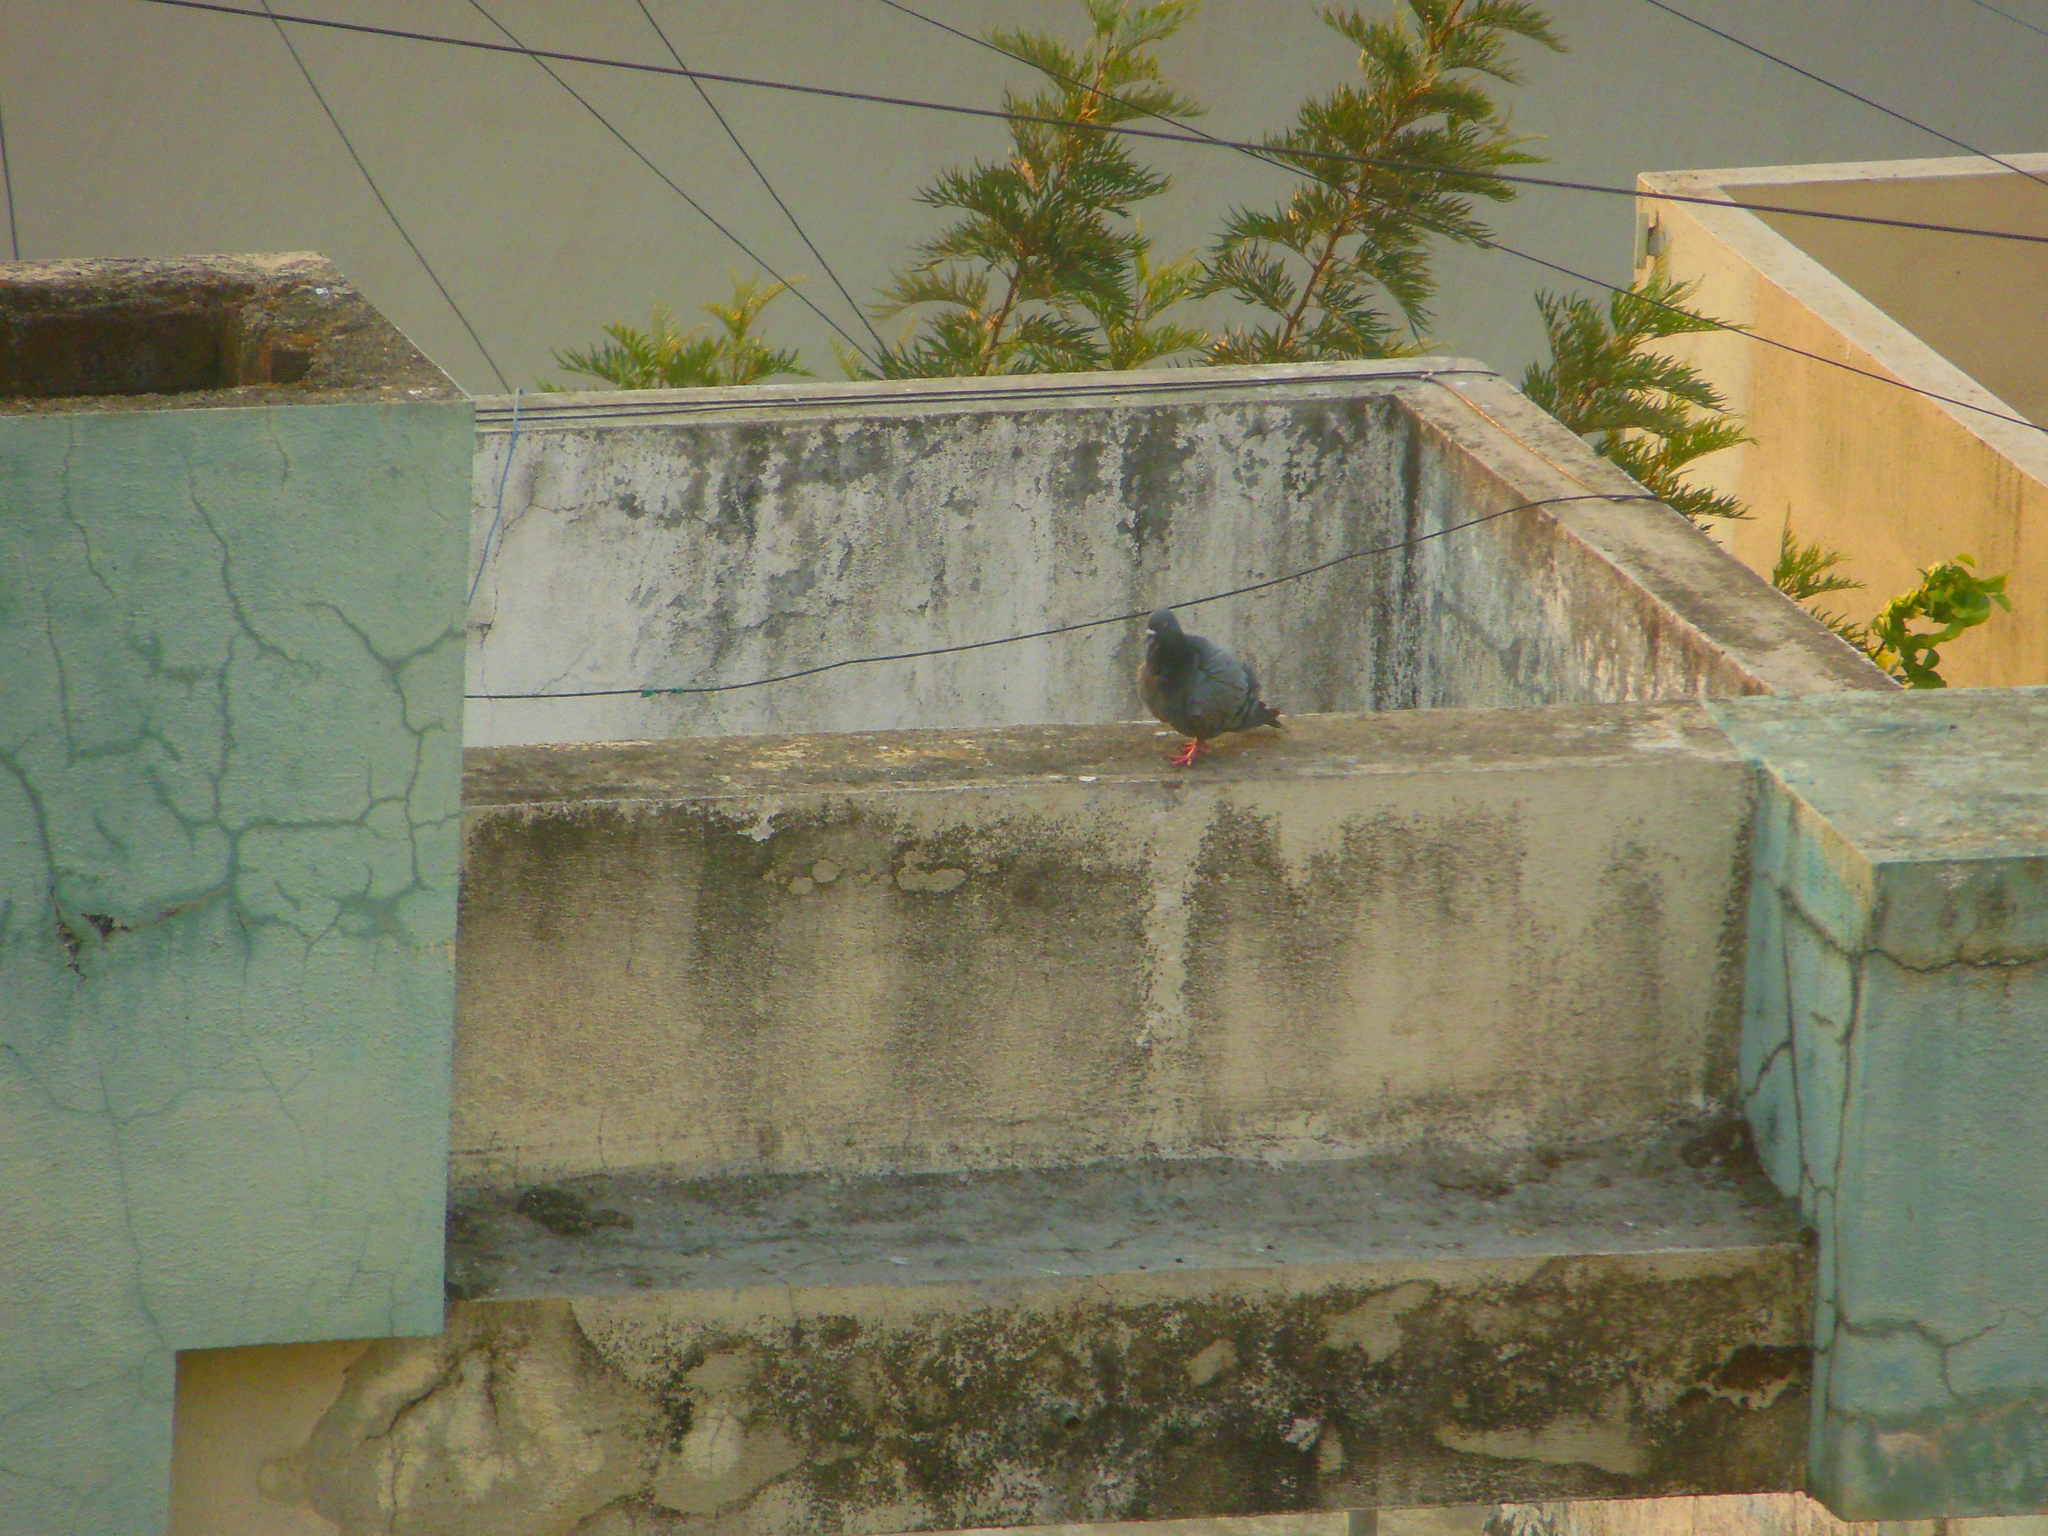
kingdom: Animalia
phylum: Chordata
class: Aves
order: Columbiformes
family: Columbidae
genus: Columba
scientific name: Columba livia
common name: Rock pigeon
